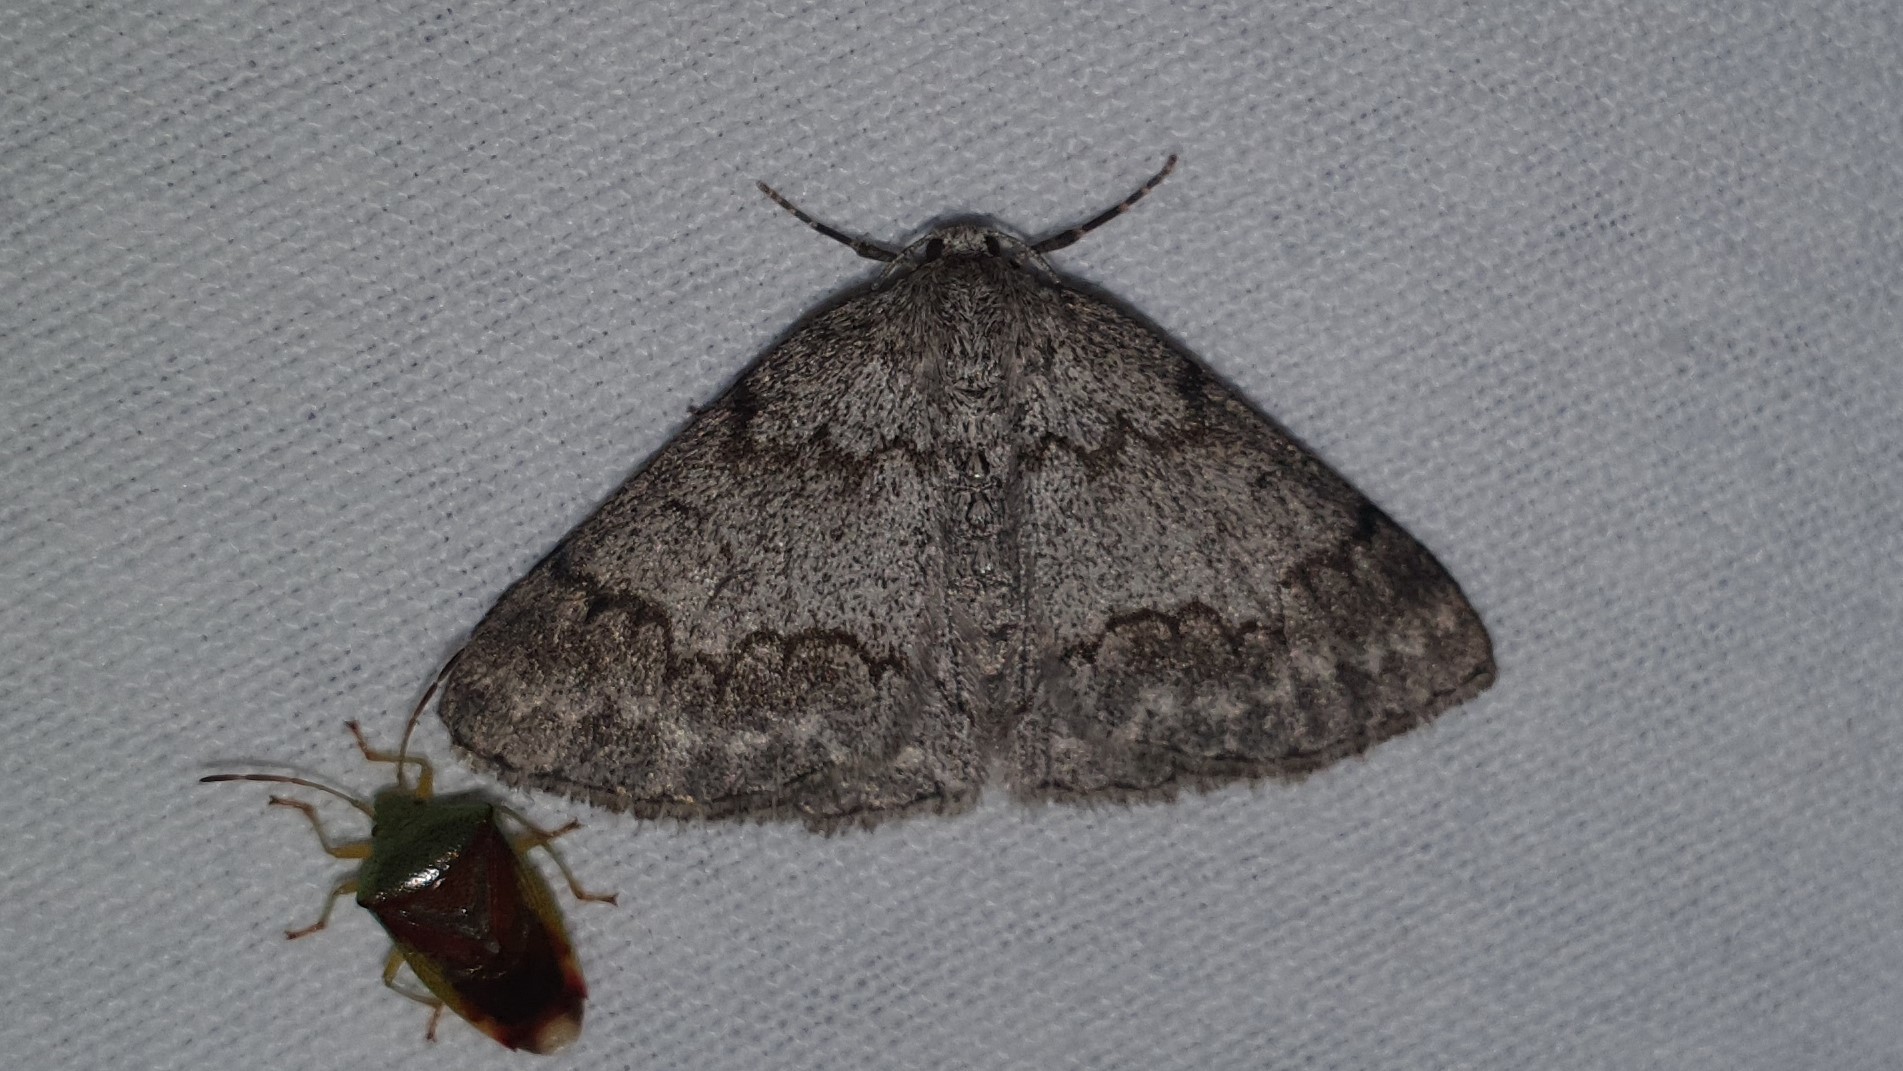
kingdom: Animalia
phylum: Arthropoda
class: Insecta
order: Lepidoptera
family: Geometridae
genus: Pseudoterpna
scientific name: Pseudoterpna coronillaria
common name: Jersey emerald
